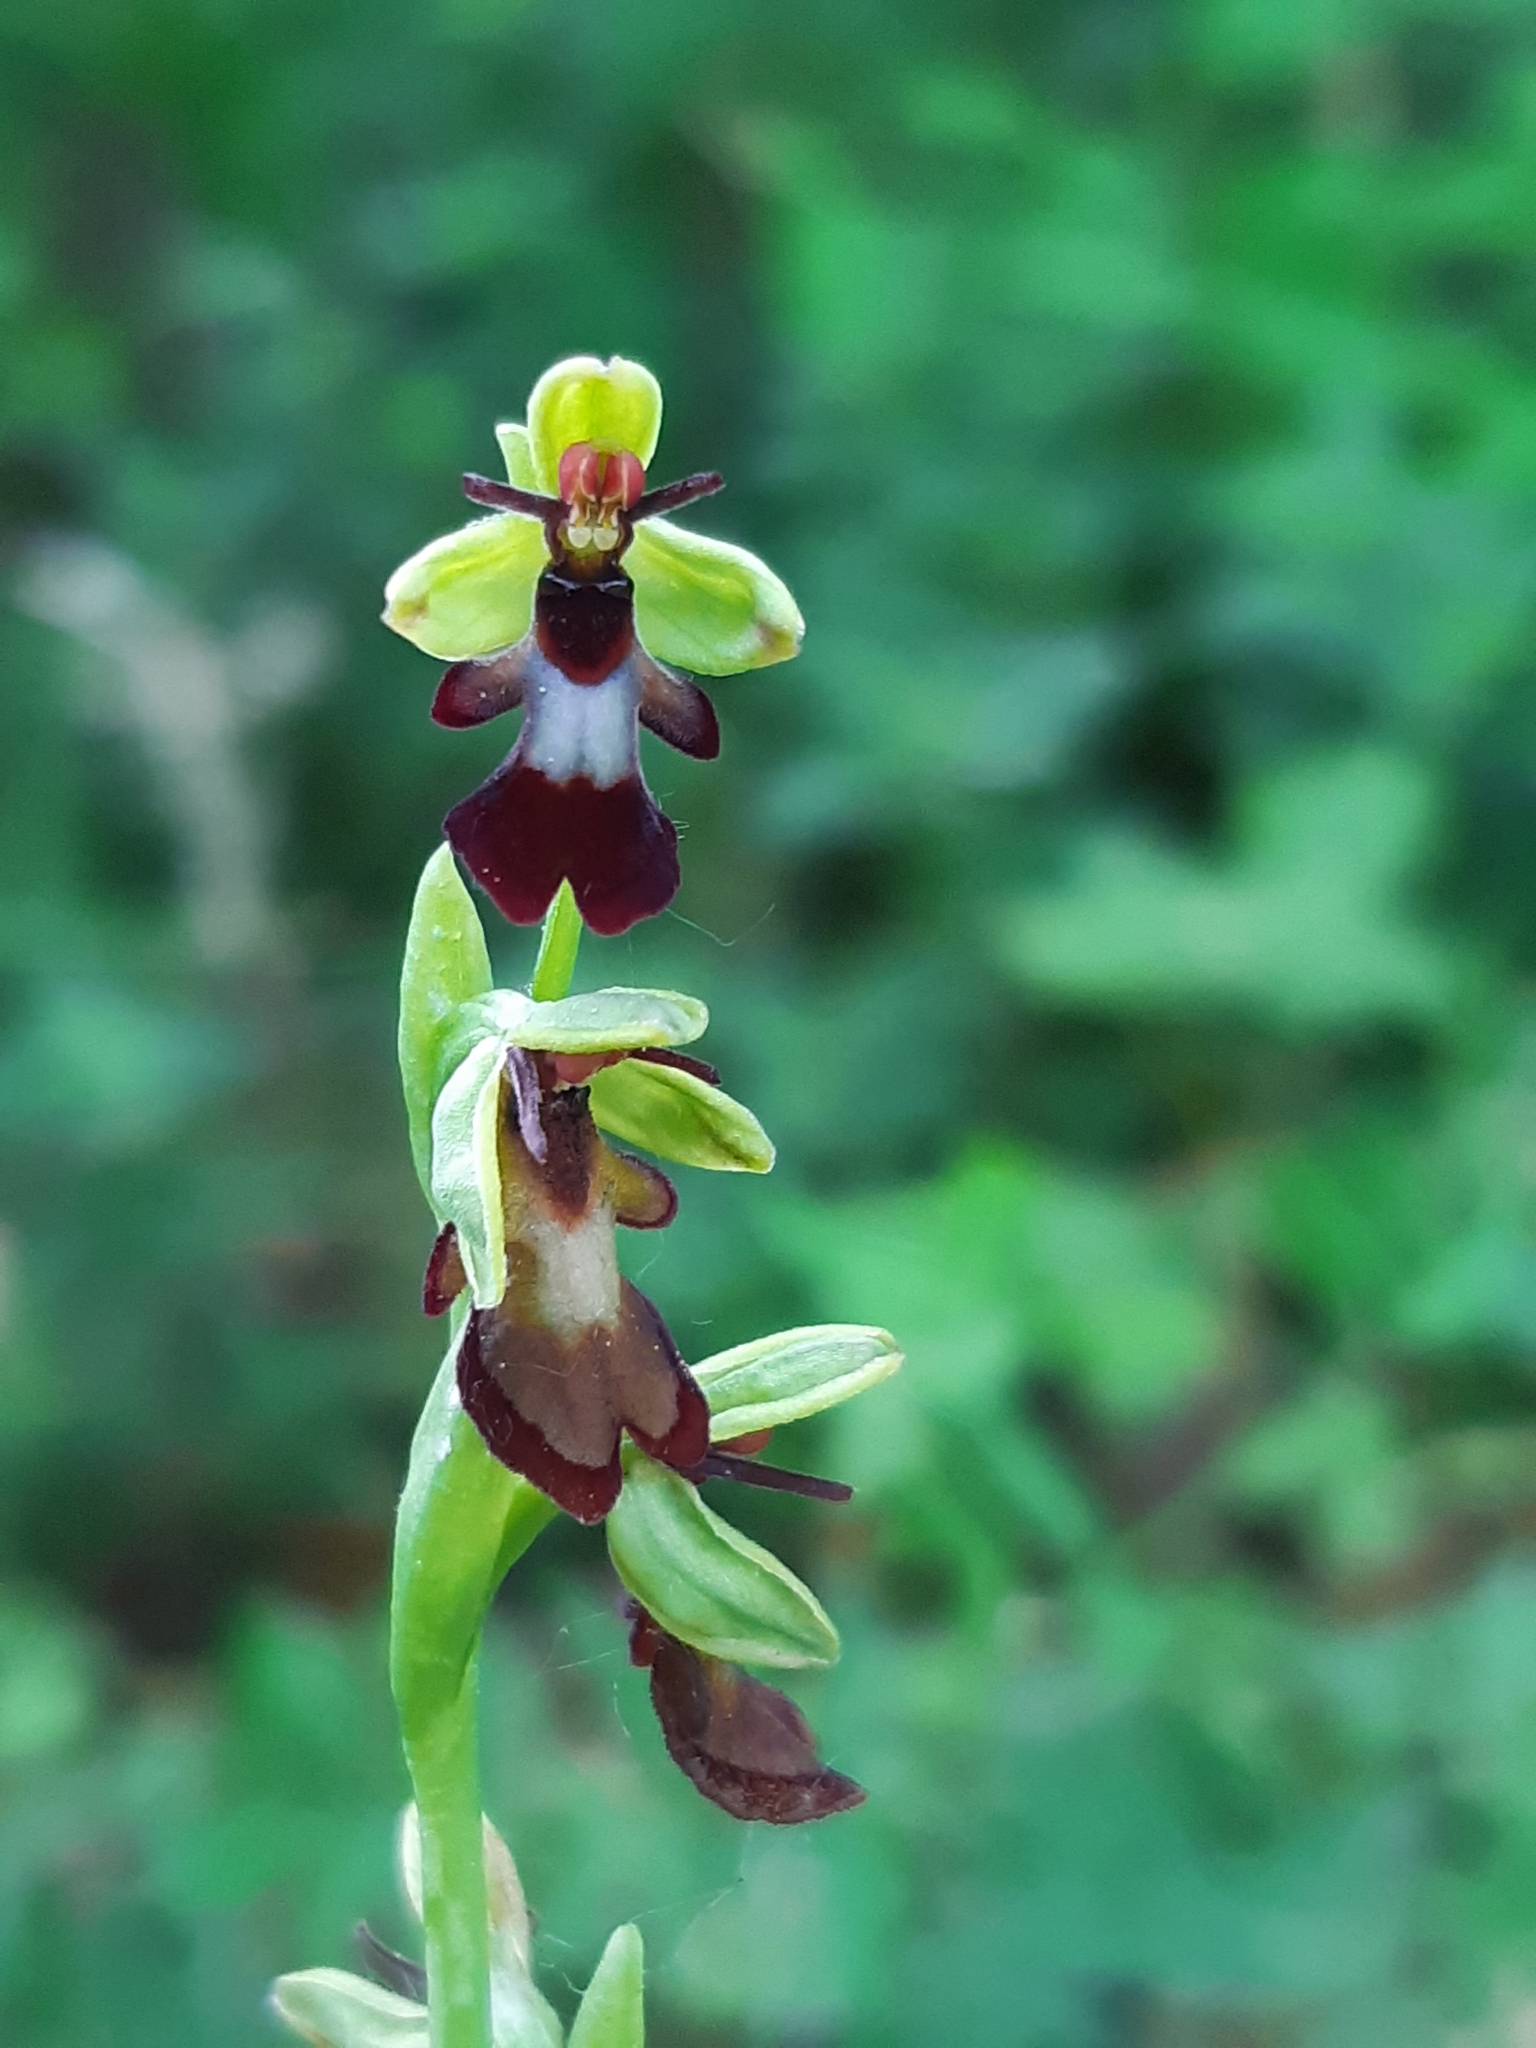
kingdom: Plantae
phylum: Tracheophyta
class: Liliopsida
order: Asparagales
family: Orchidaceae
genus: Ophrys
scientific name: Ophrys insectifera
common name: Fly orchid
